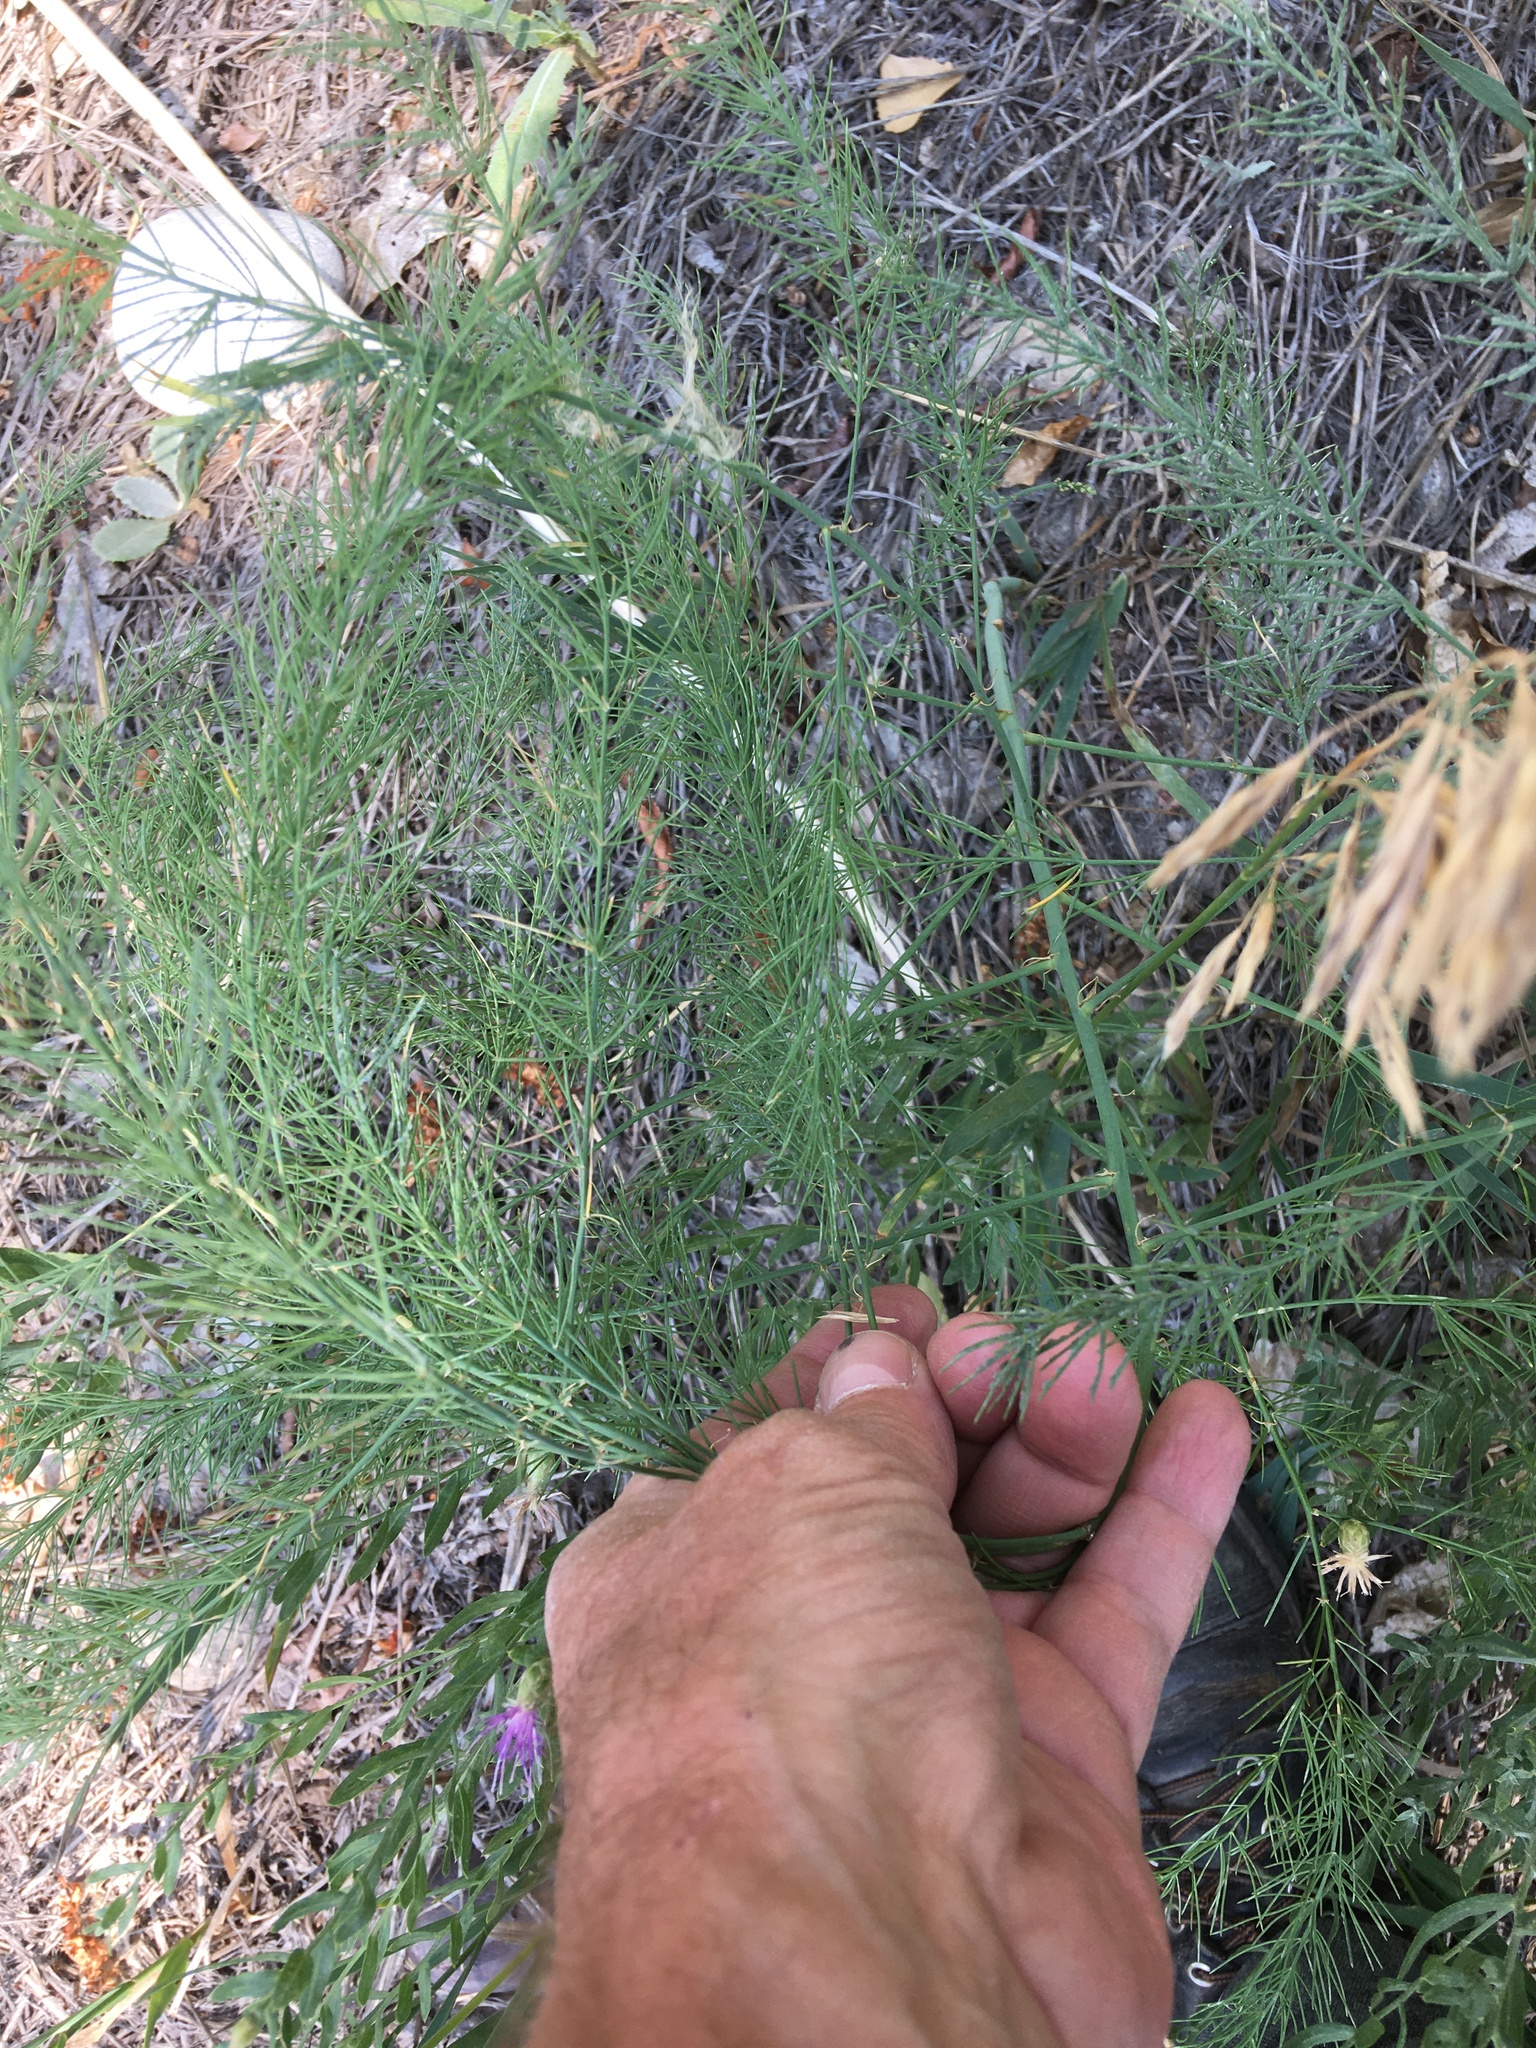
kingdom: Plantae
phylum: Tracheophyta
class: Liliopsida
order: Asparagales
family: Asparagaceae
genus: Asparagus
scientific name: Asparagus officinalis
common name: Garden asparagus
